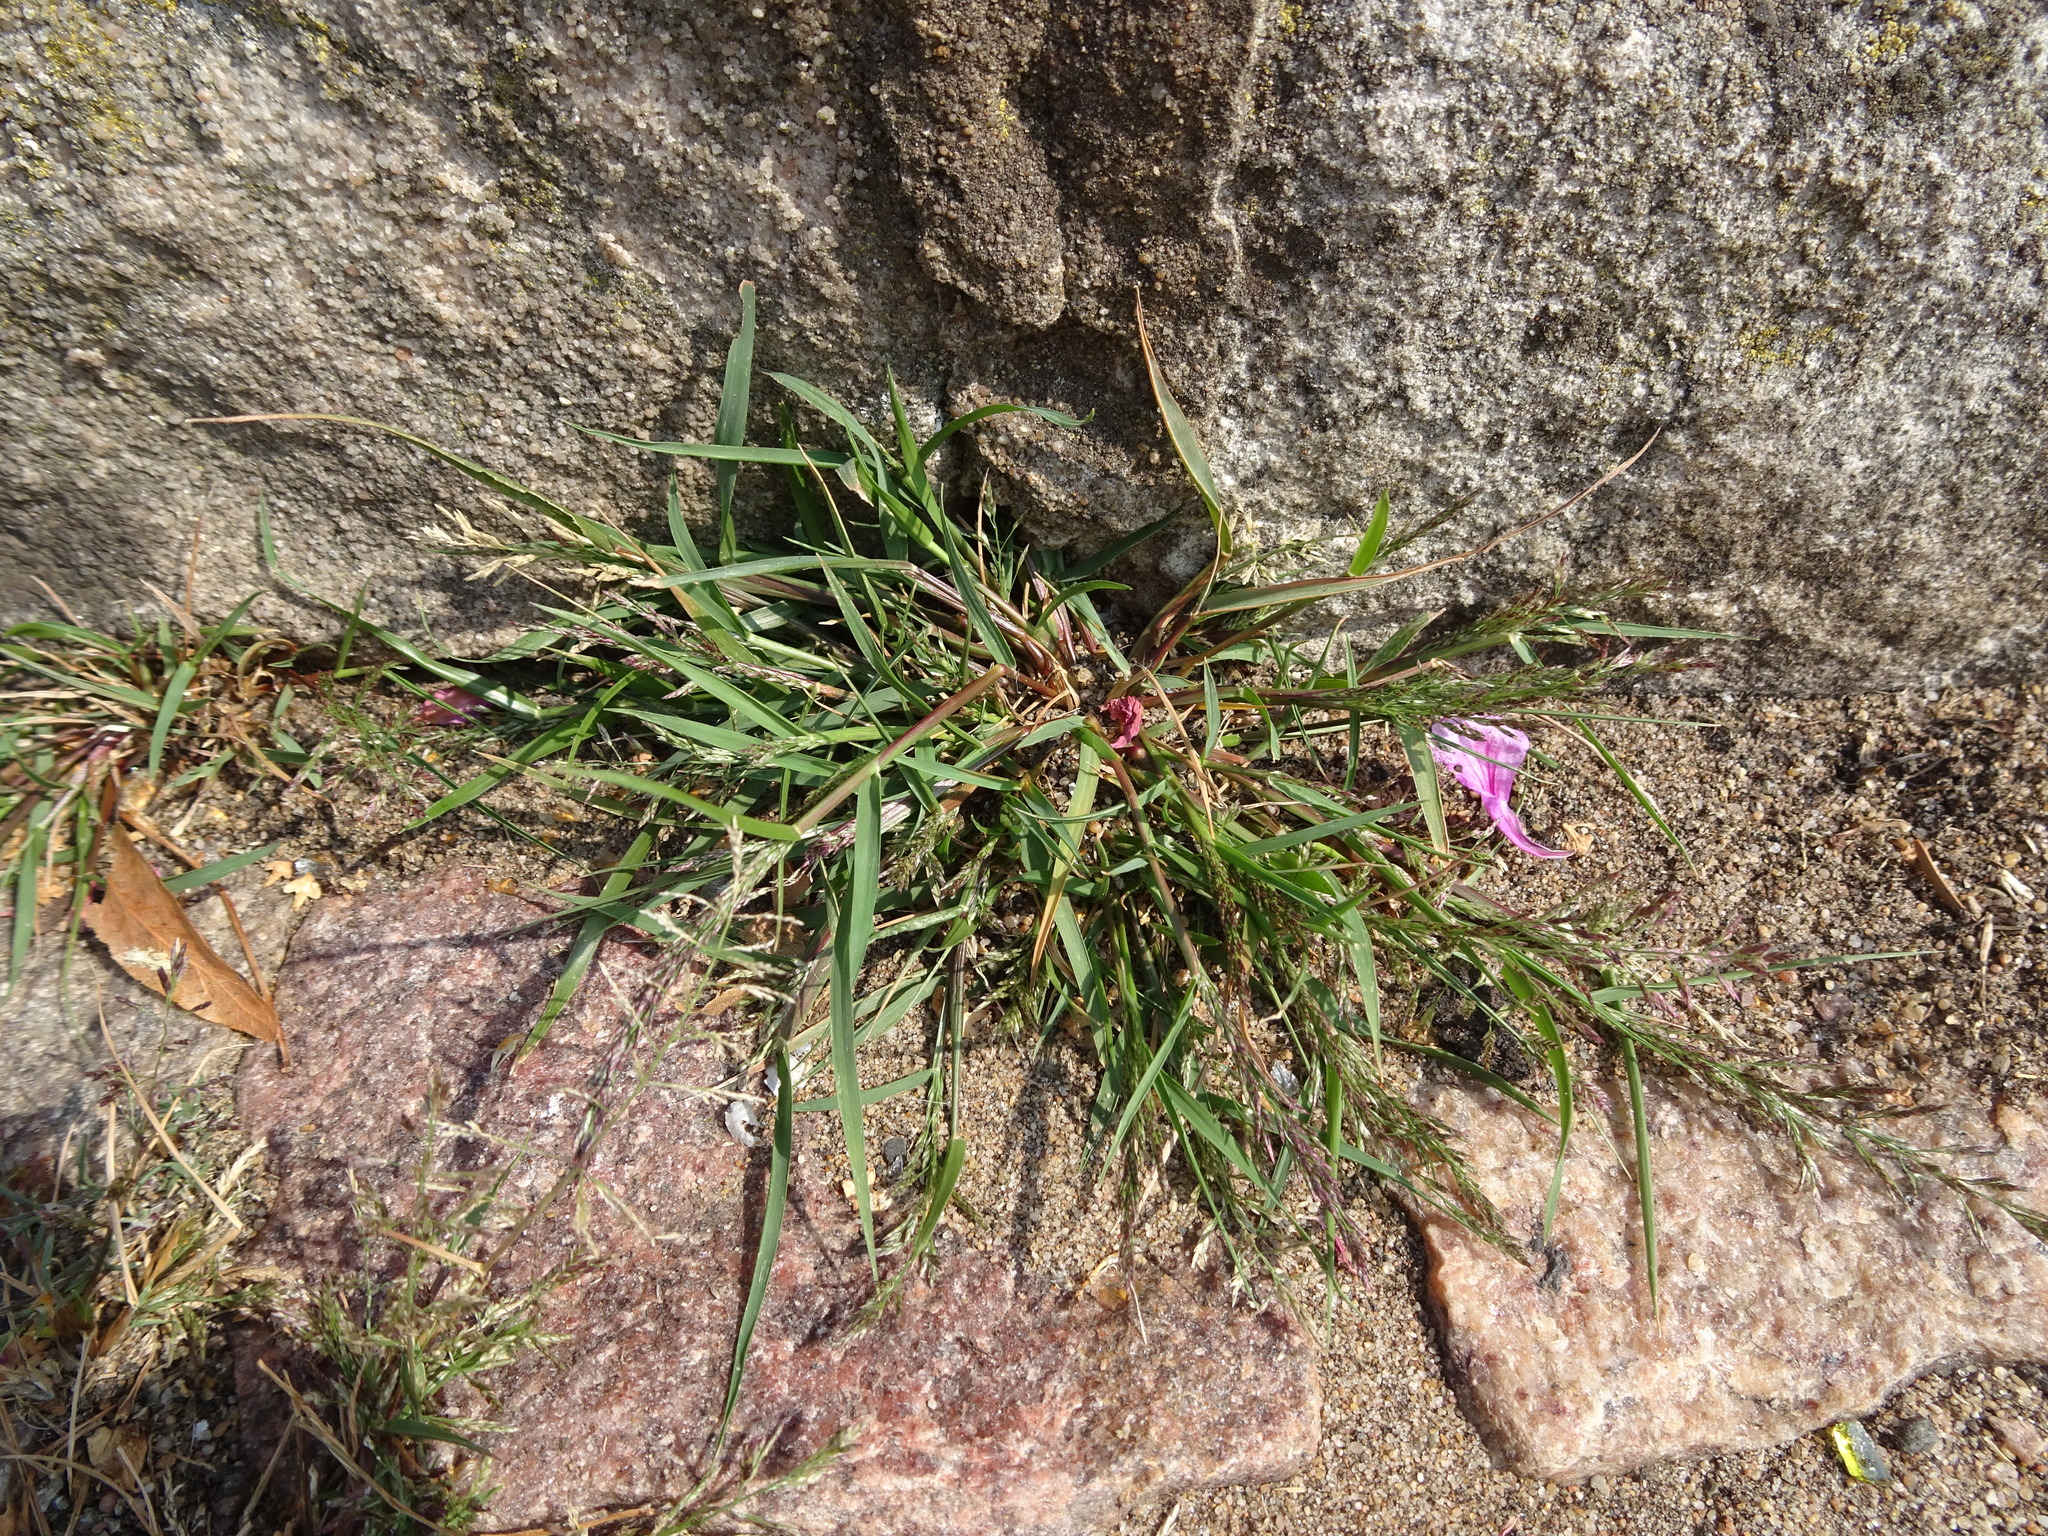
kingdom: Plantae
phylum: Tracheophyta
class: Liliopsida
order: Poales
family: Poaceae
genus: Poa
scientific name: Poa pratensis
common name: Kentucky bluegrass
